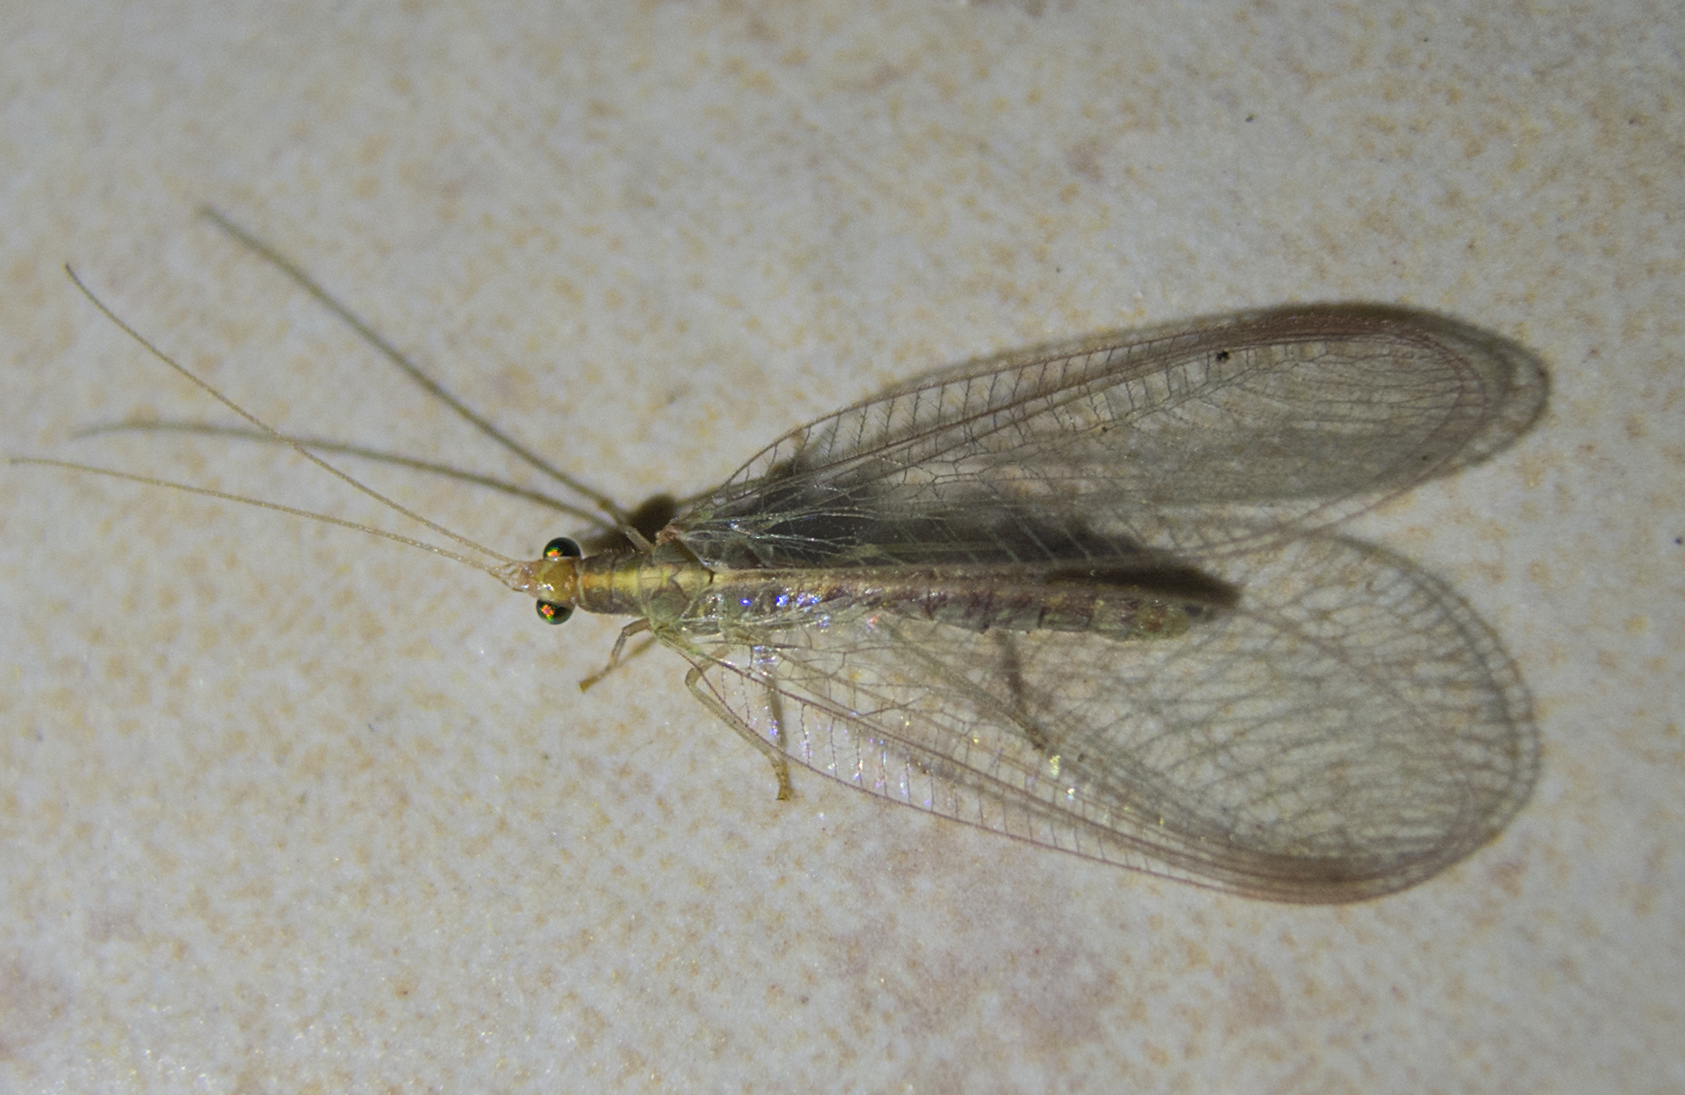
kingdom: Animalia
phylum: Arthropoda
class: Insecta
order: Neuroptera
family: Chrysopidae
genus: Chrysoperla
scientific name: Chrysoperla carnea
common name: Common green lacewing
